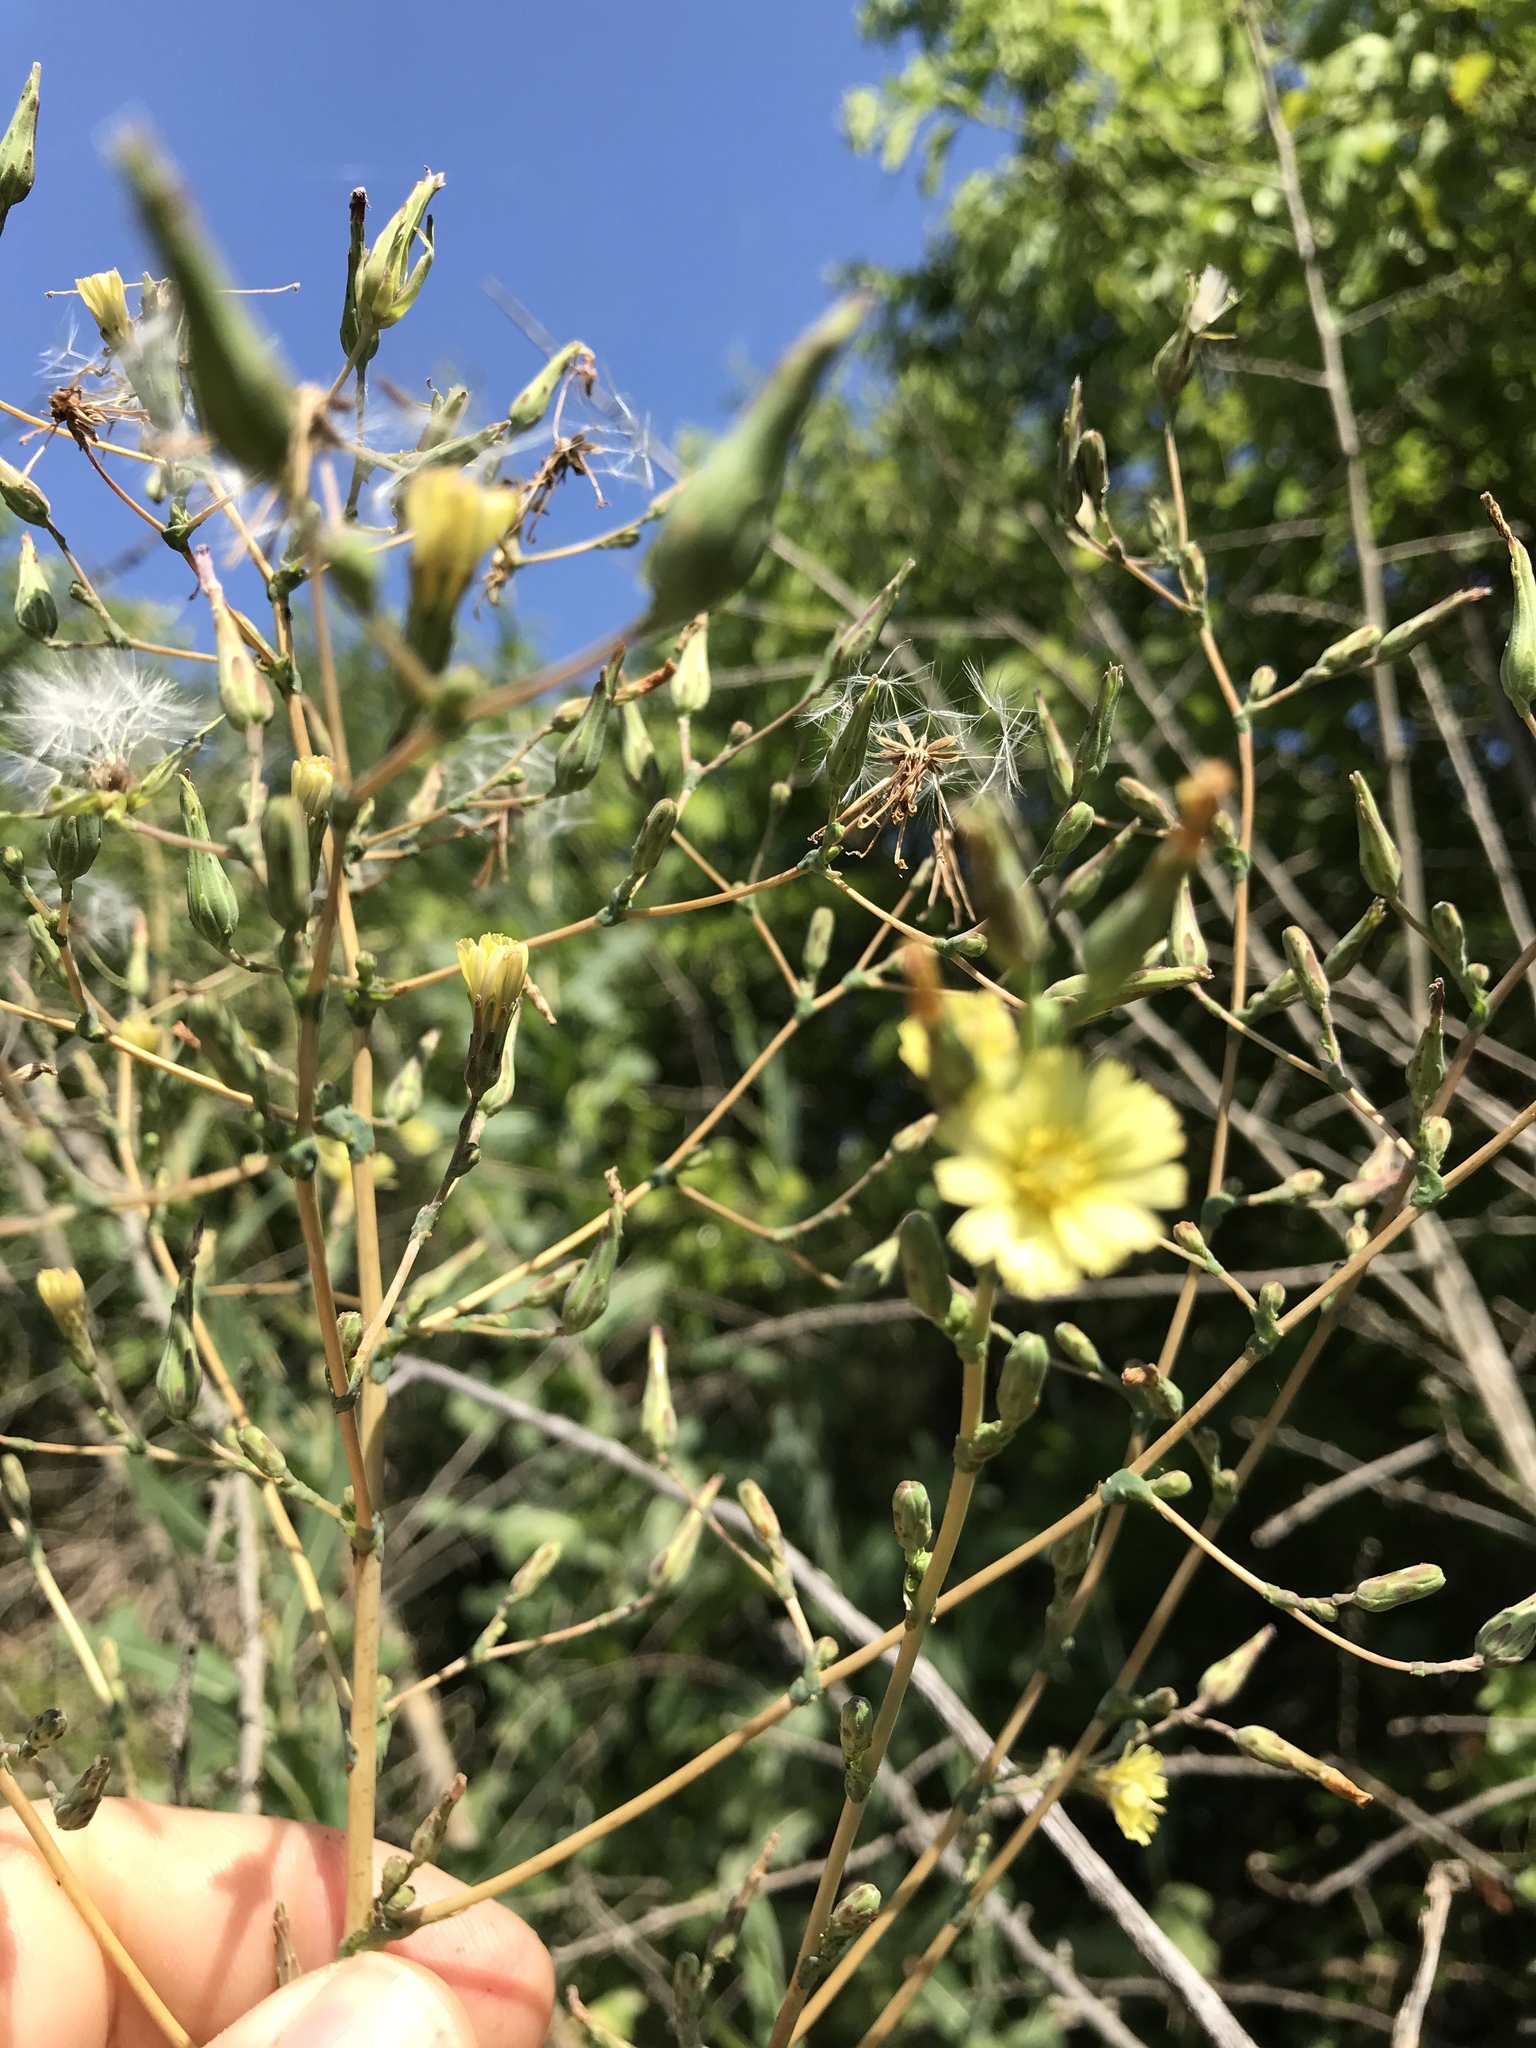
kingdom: Plantae
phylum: Tracheophyta
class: Magnoliopsida
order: Asterales
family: Asteraceae
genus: Lactuca
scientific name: Lactuca serriola
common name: Prickly lettuce
